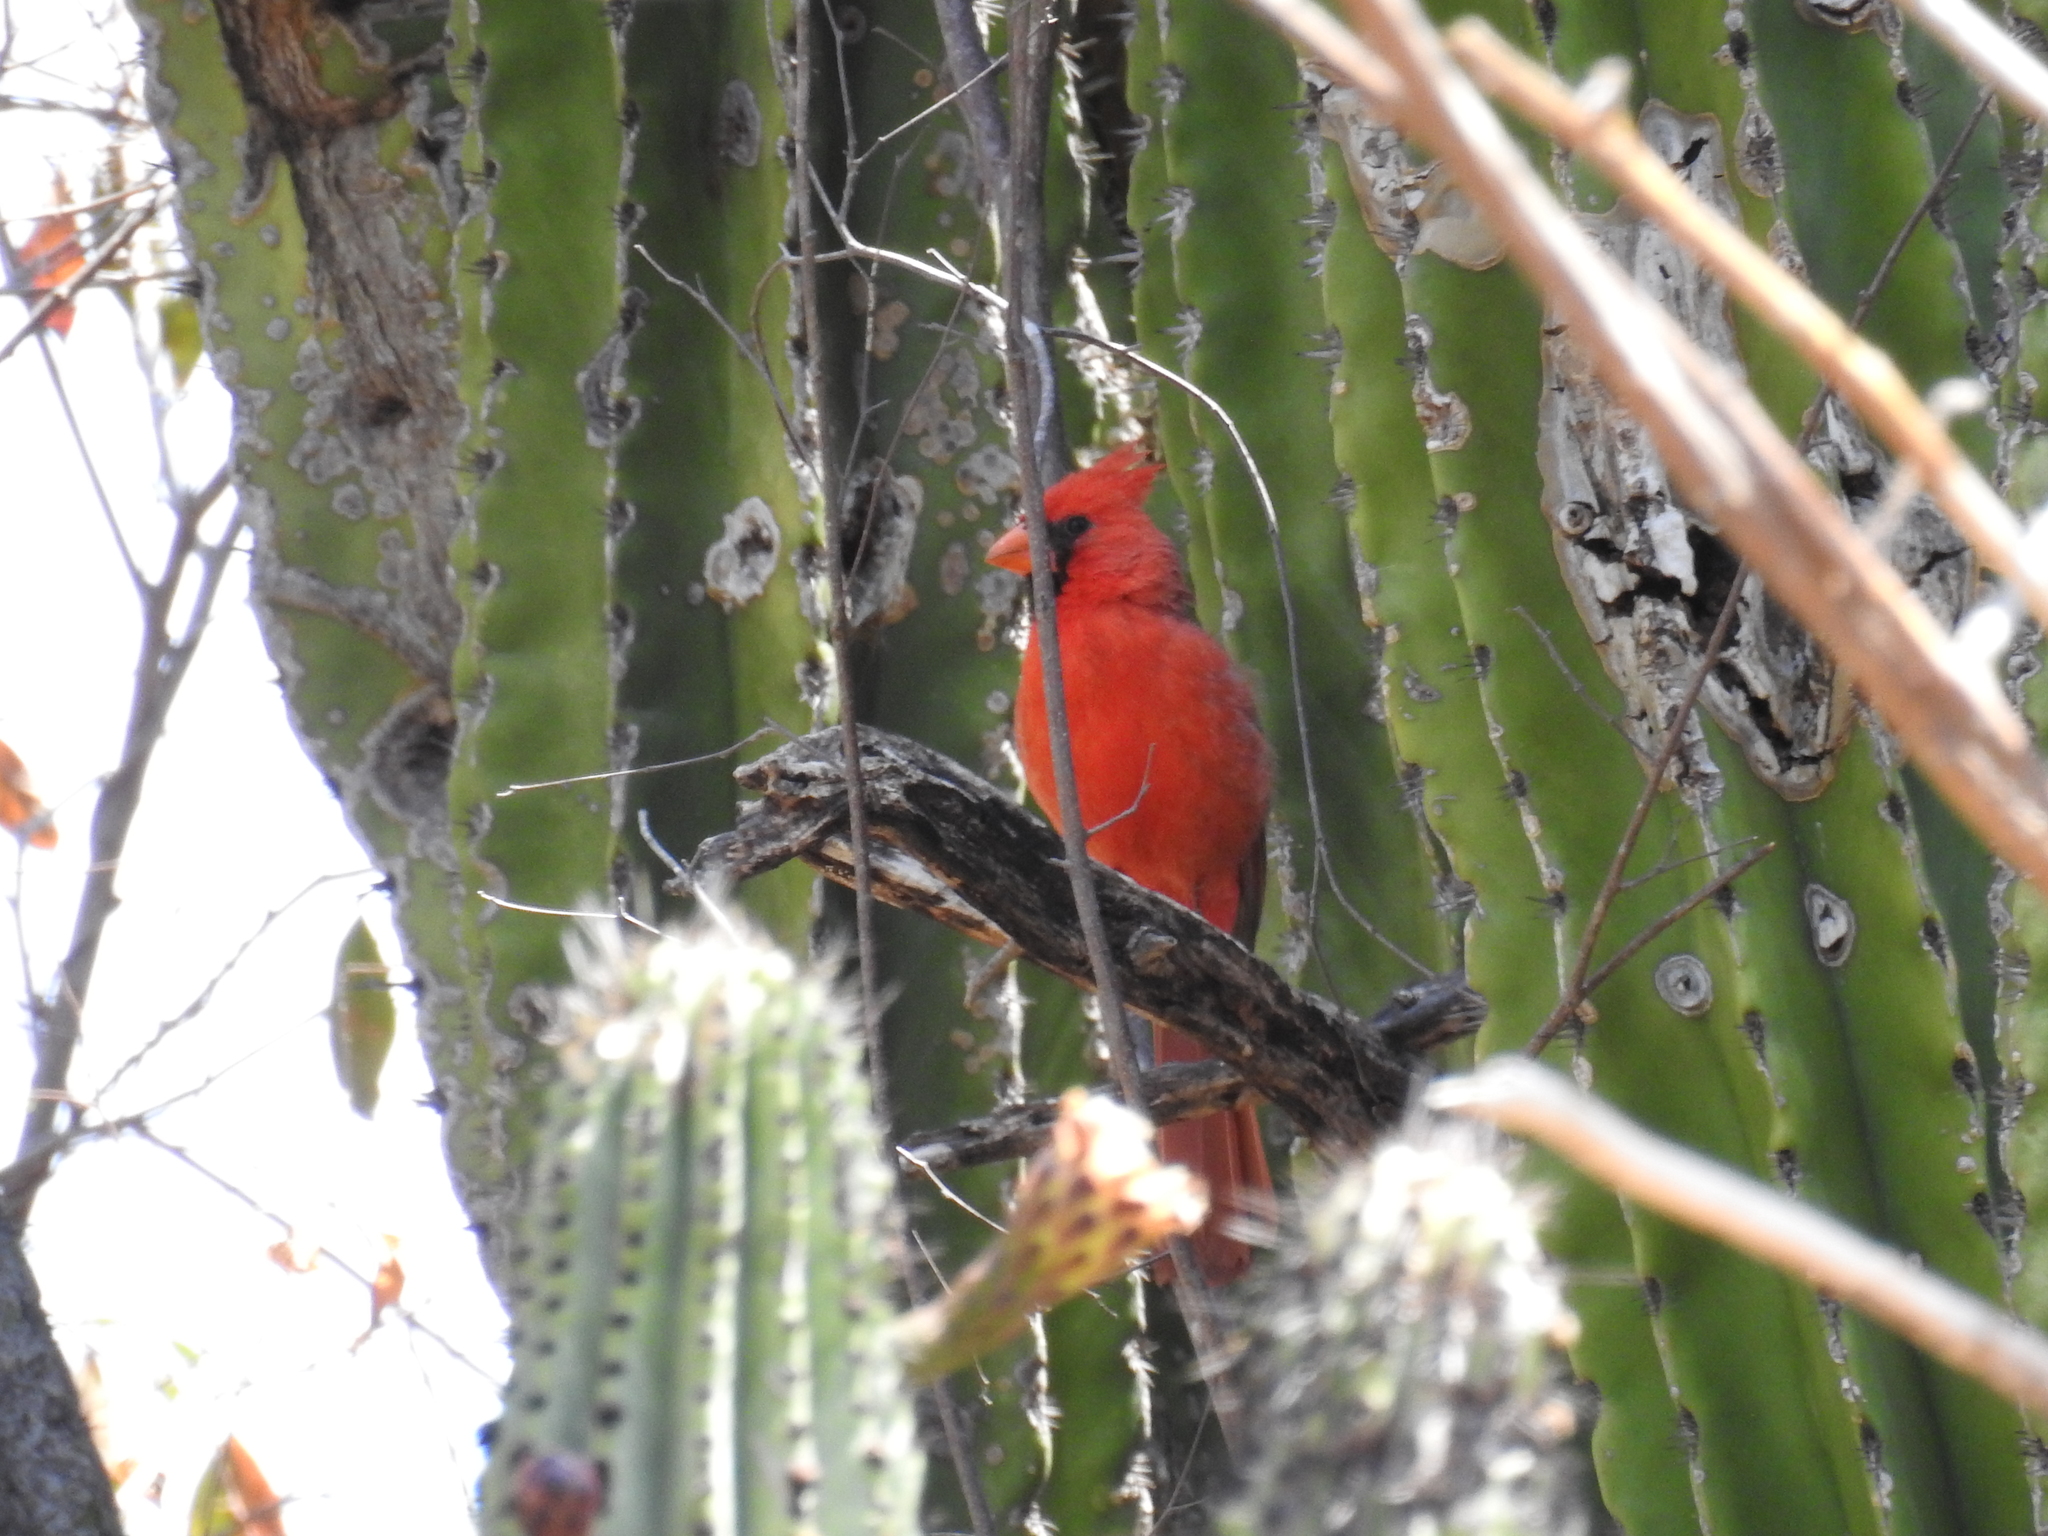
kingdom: Animalia
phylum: Chordata
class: Aves
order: Passeriformes
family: Cardinalidae
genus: Cardinalis
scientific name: Cardinalis cardinalis
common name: Northern cardinal
